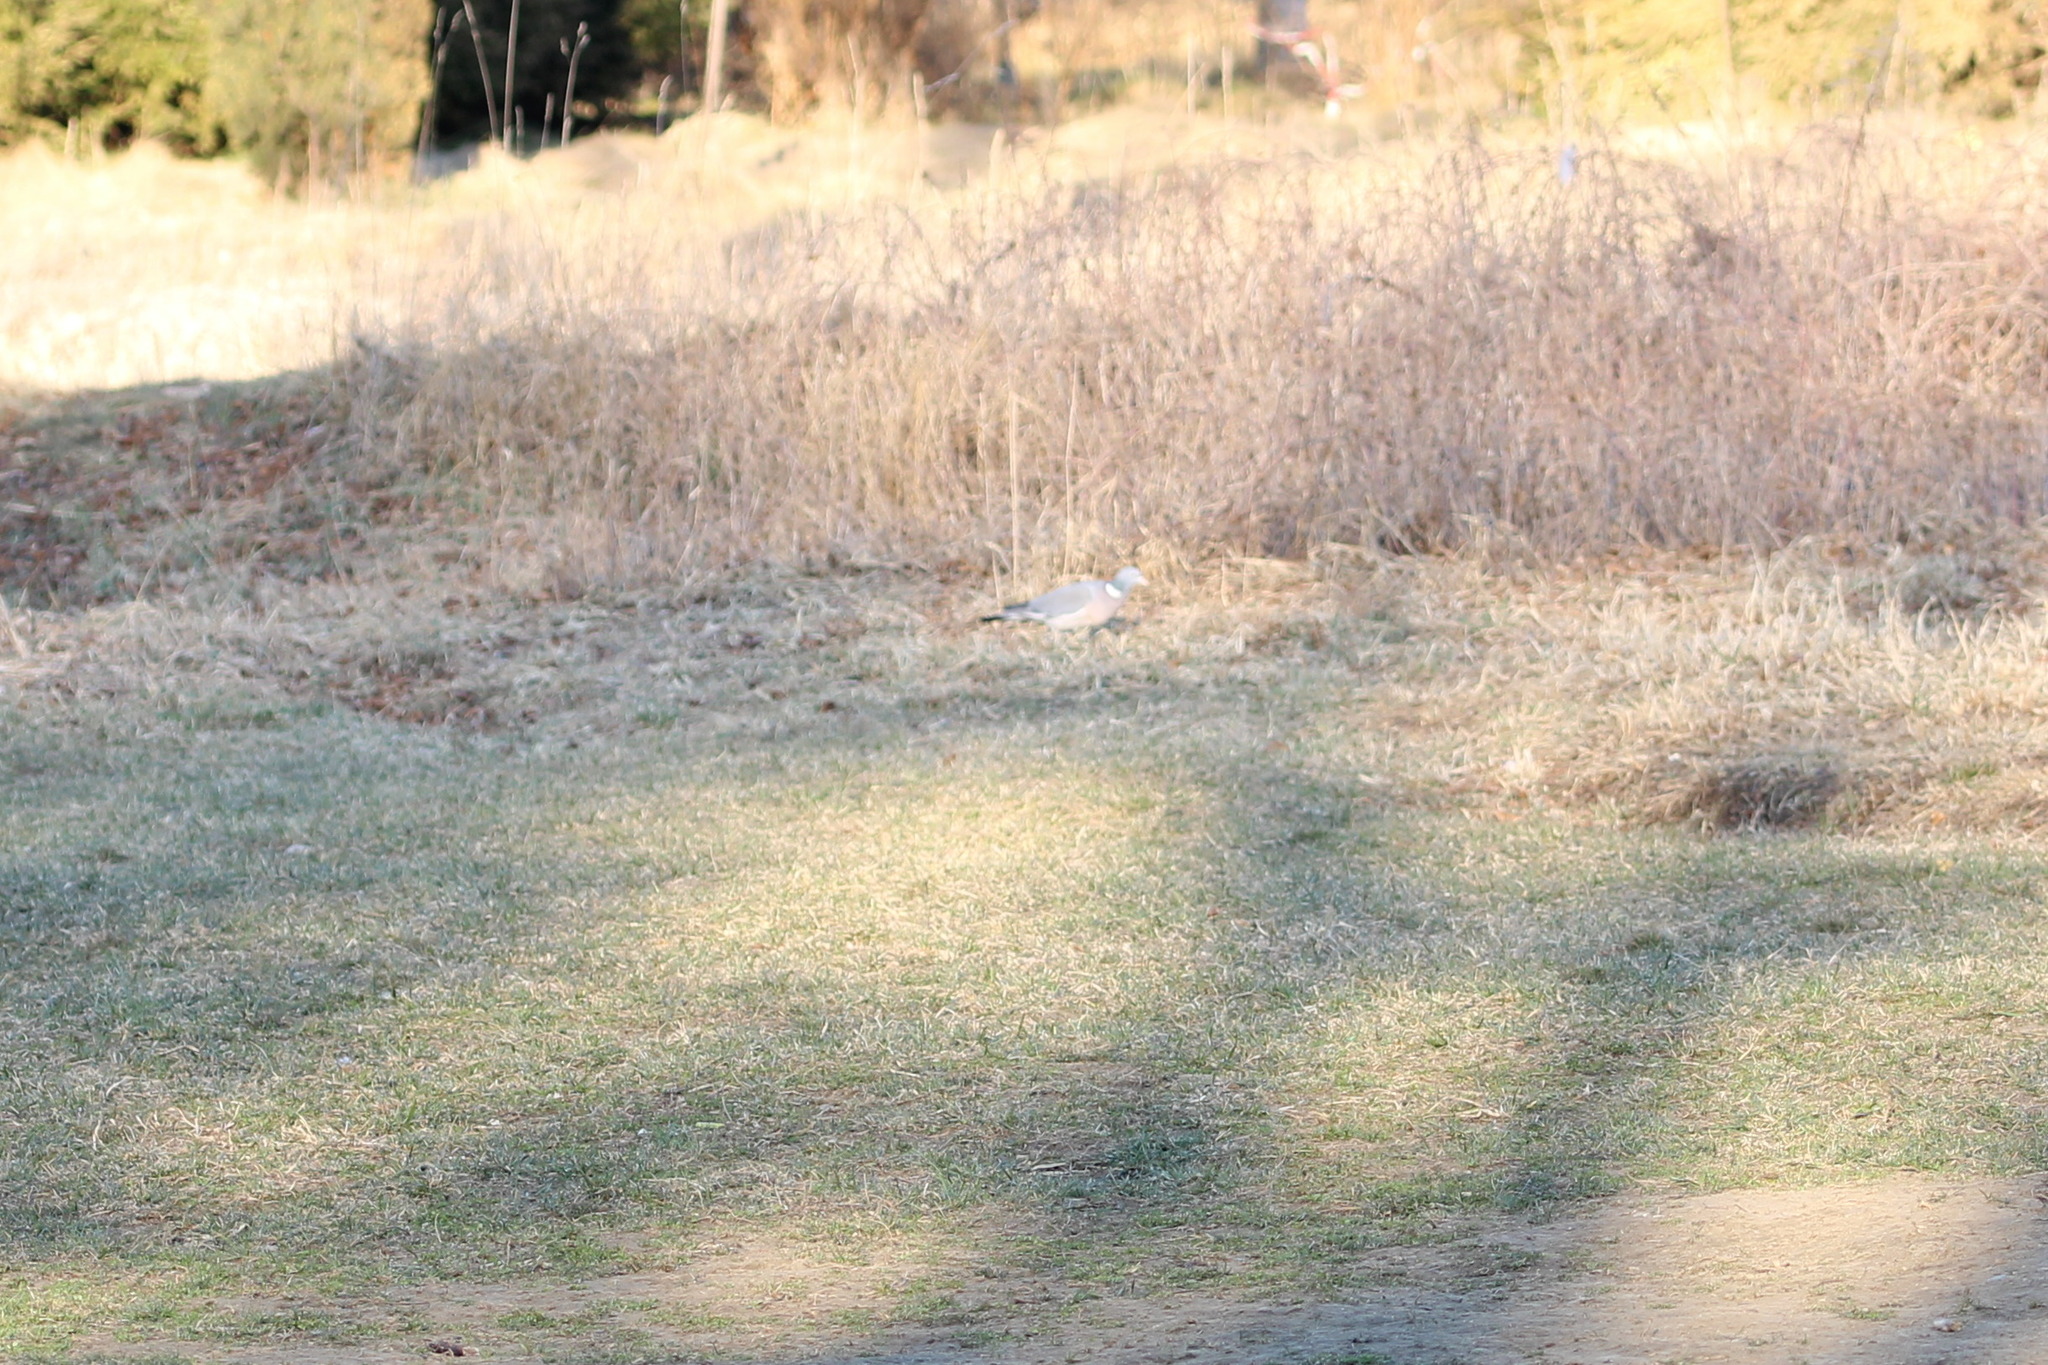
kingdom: Animalia
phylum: Chordata
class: Aves
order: Columbiformes
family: Columbidae
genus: Columba
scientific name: Columba palumbus
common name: Common wood pigeon
